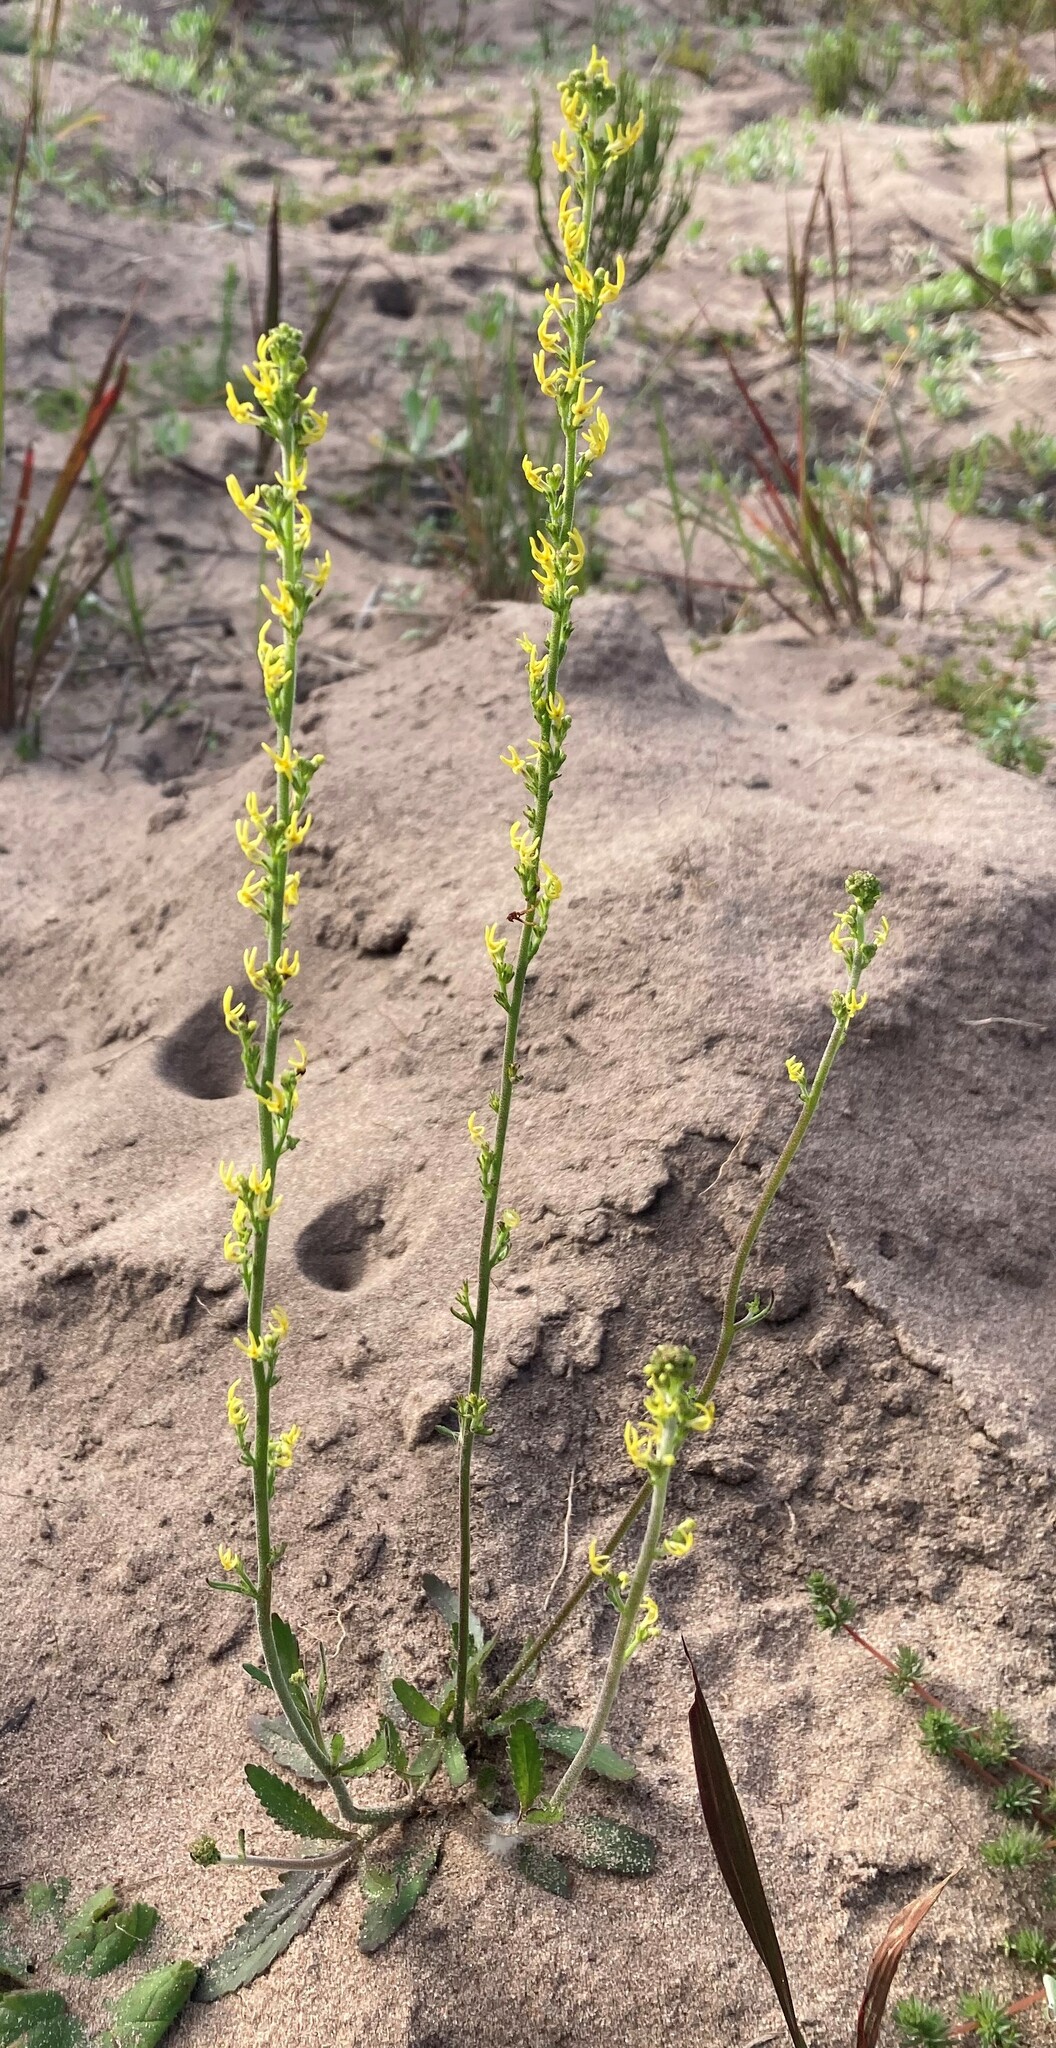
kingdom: Plantae
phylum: Tracheophyta
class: Magnoliopsida
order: Lamiales
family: Scrophulariaceae
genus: Manulea
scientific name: Manulea cheiranthus
